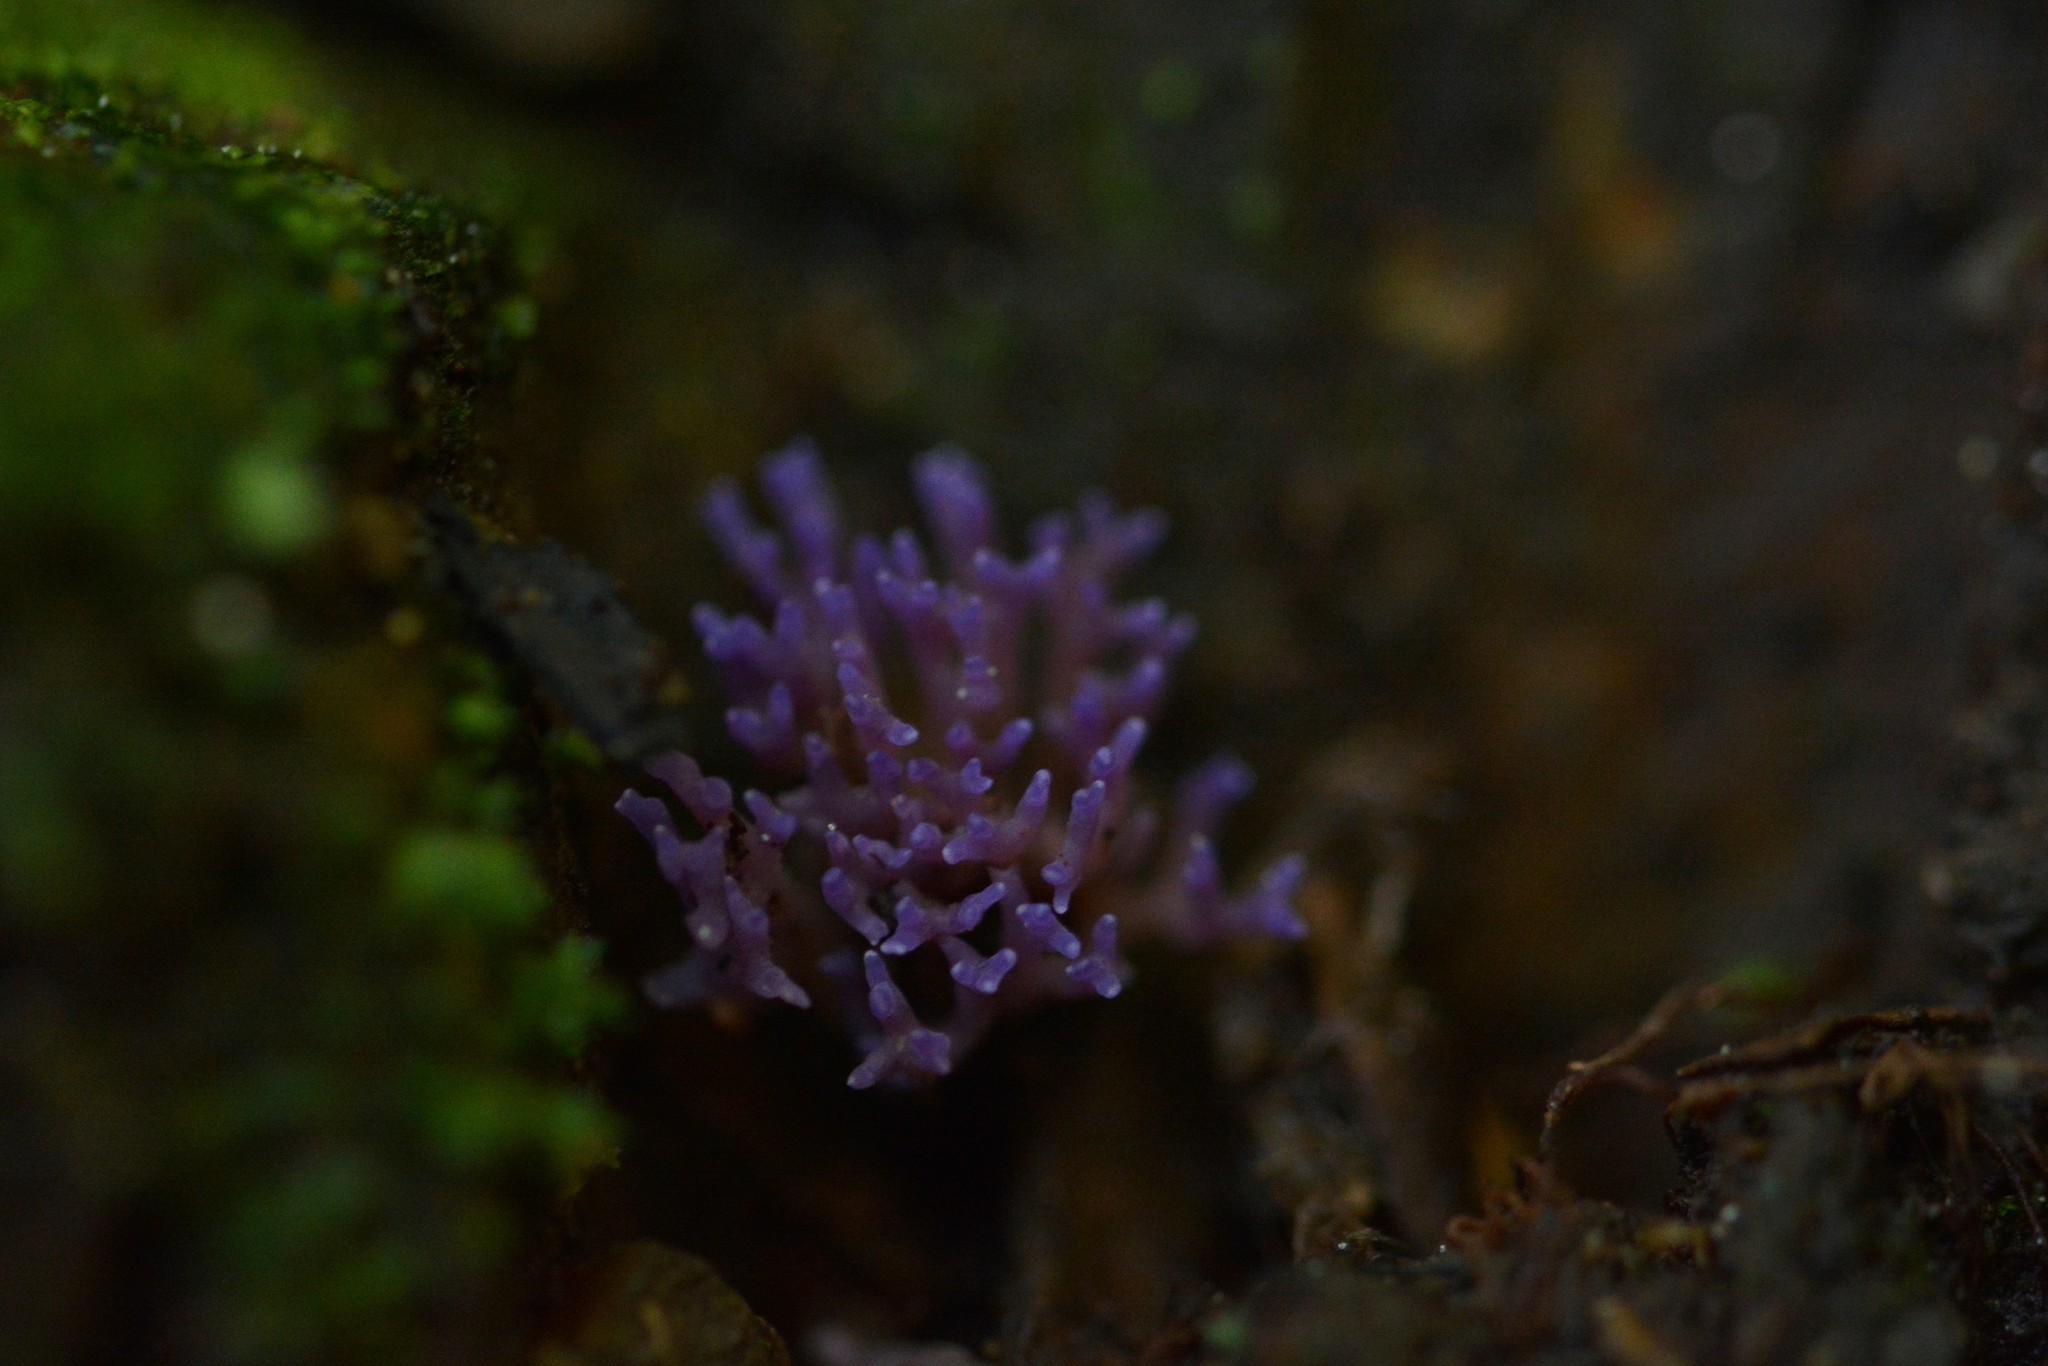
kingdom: Fungi
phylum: Basidiomycota
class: Agaricomycetes
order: Agaricales
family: Clavariaceae
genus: Ramariopsis
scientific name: Ramariopsis pulchella
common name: Lilac coral
